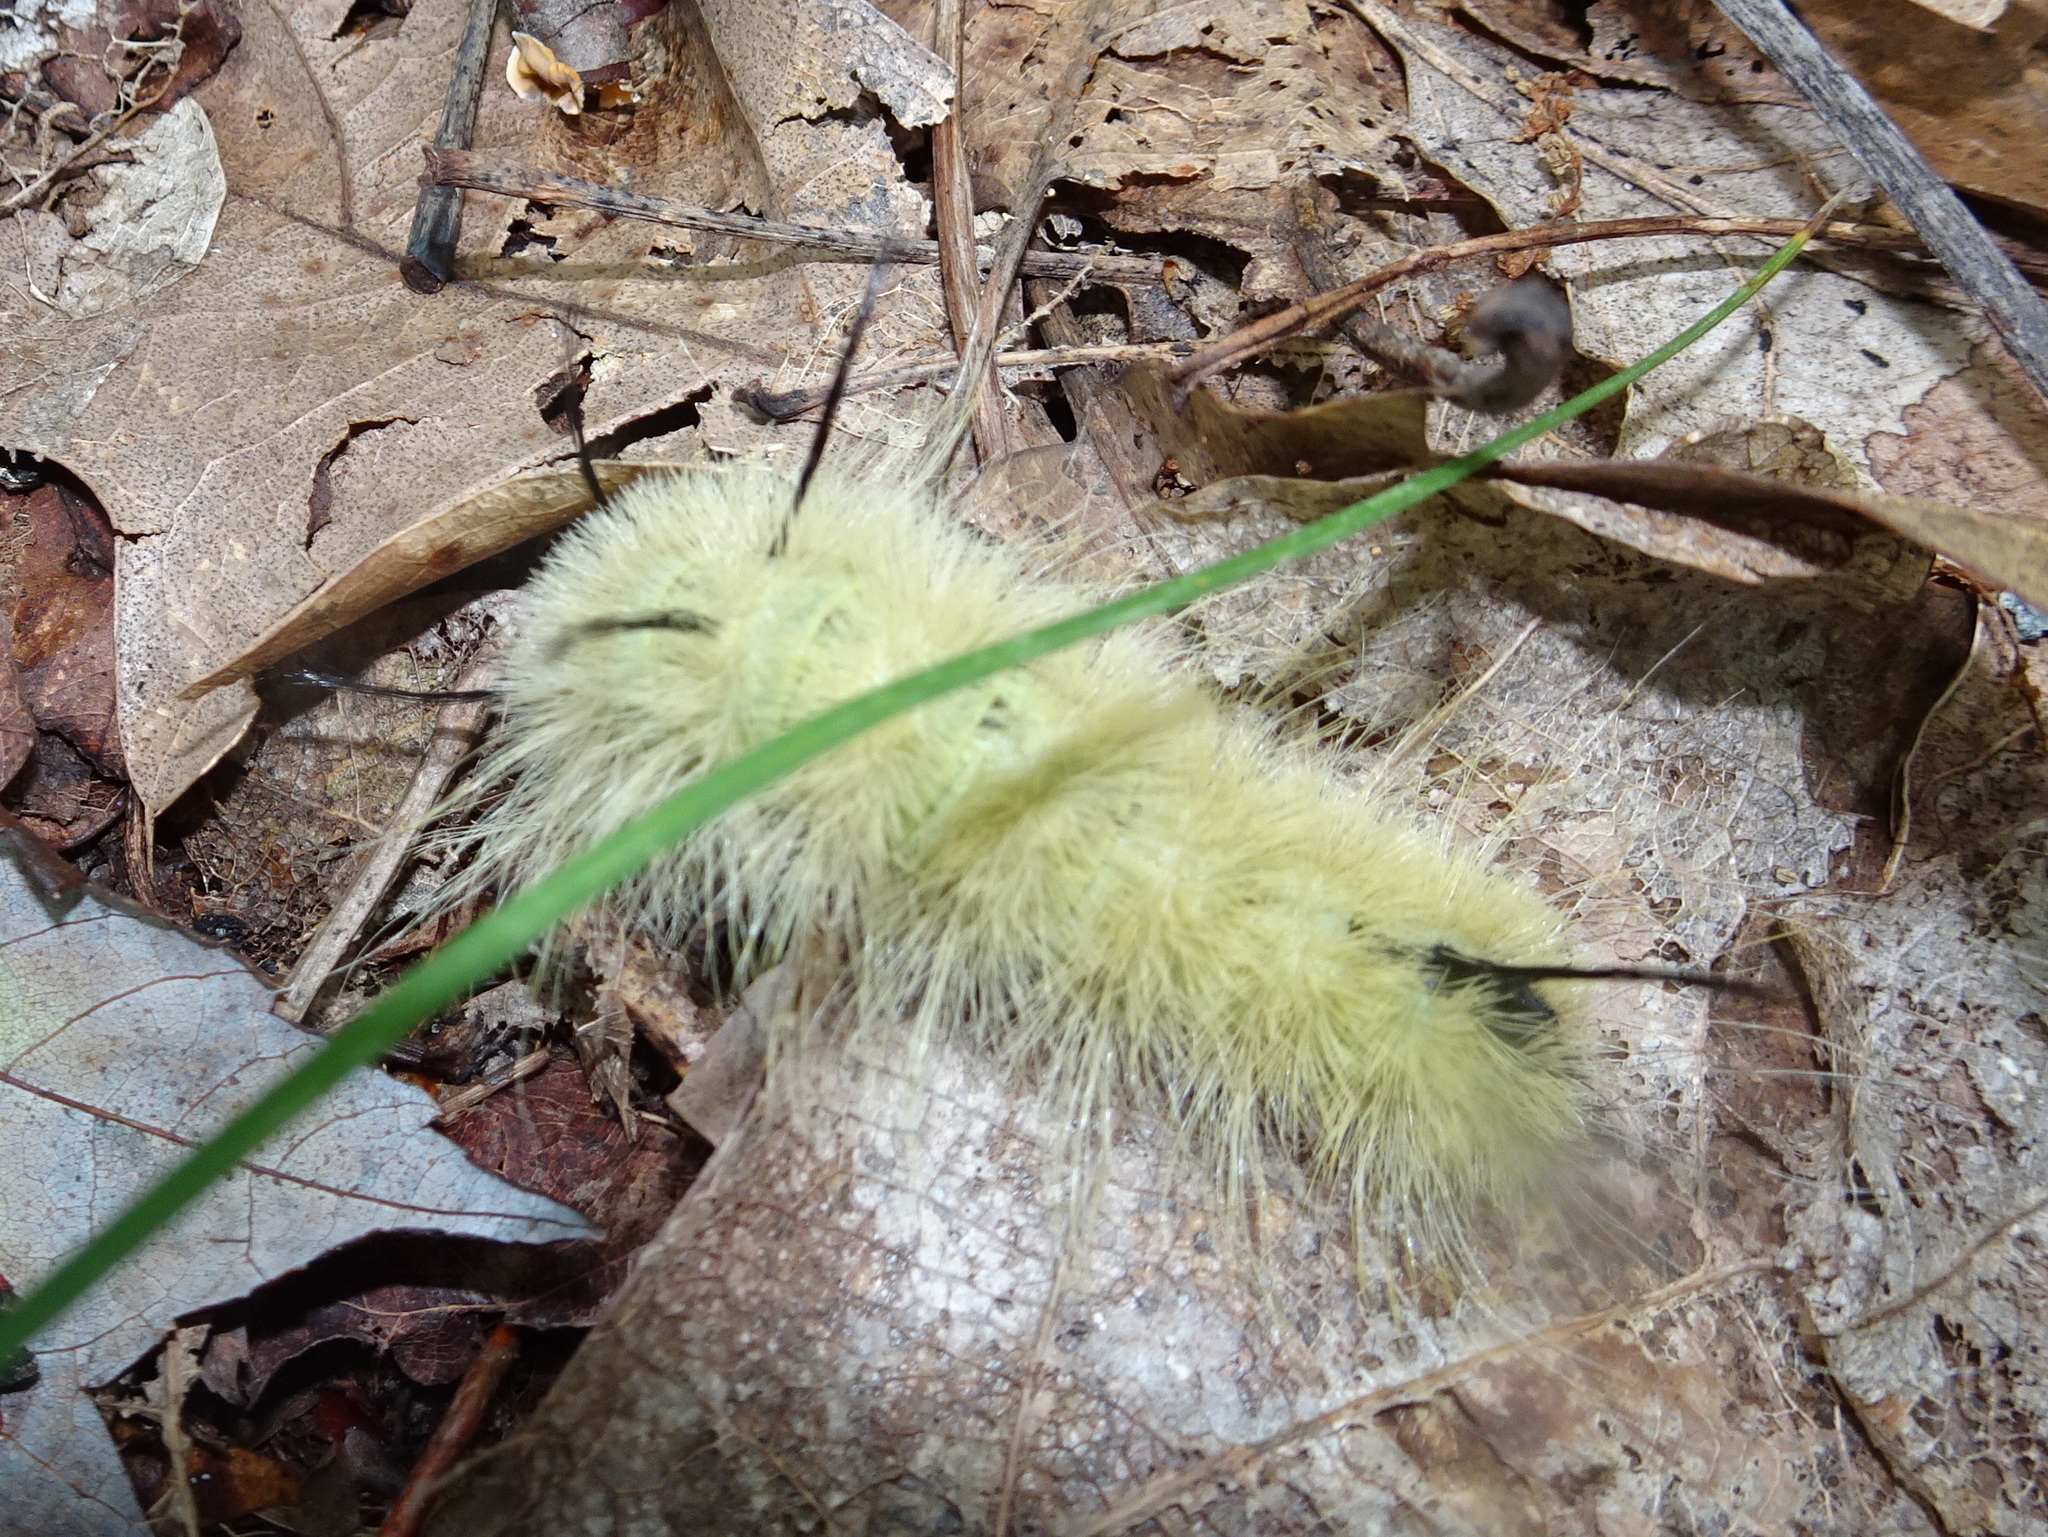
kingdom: Animalia
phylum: Arthropoda
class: Insecta
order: Lepidoptera
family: Noctuidae
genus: Acronicta
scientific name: Acronicta americana
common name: American dagger
